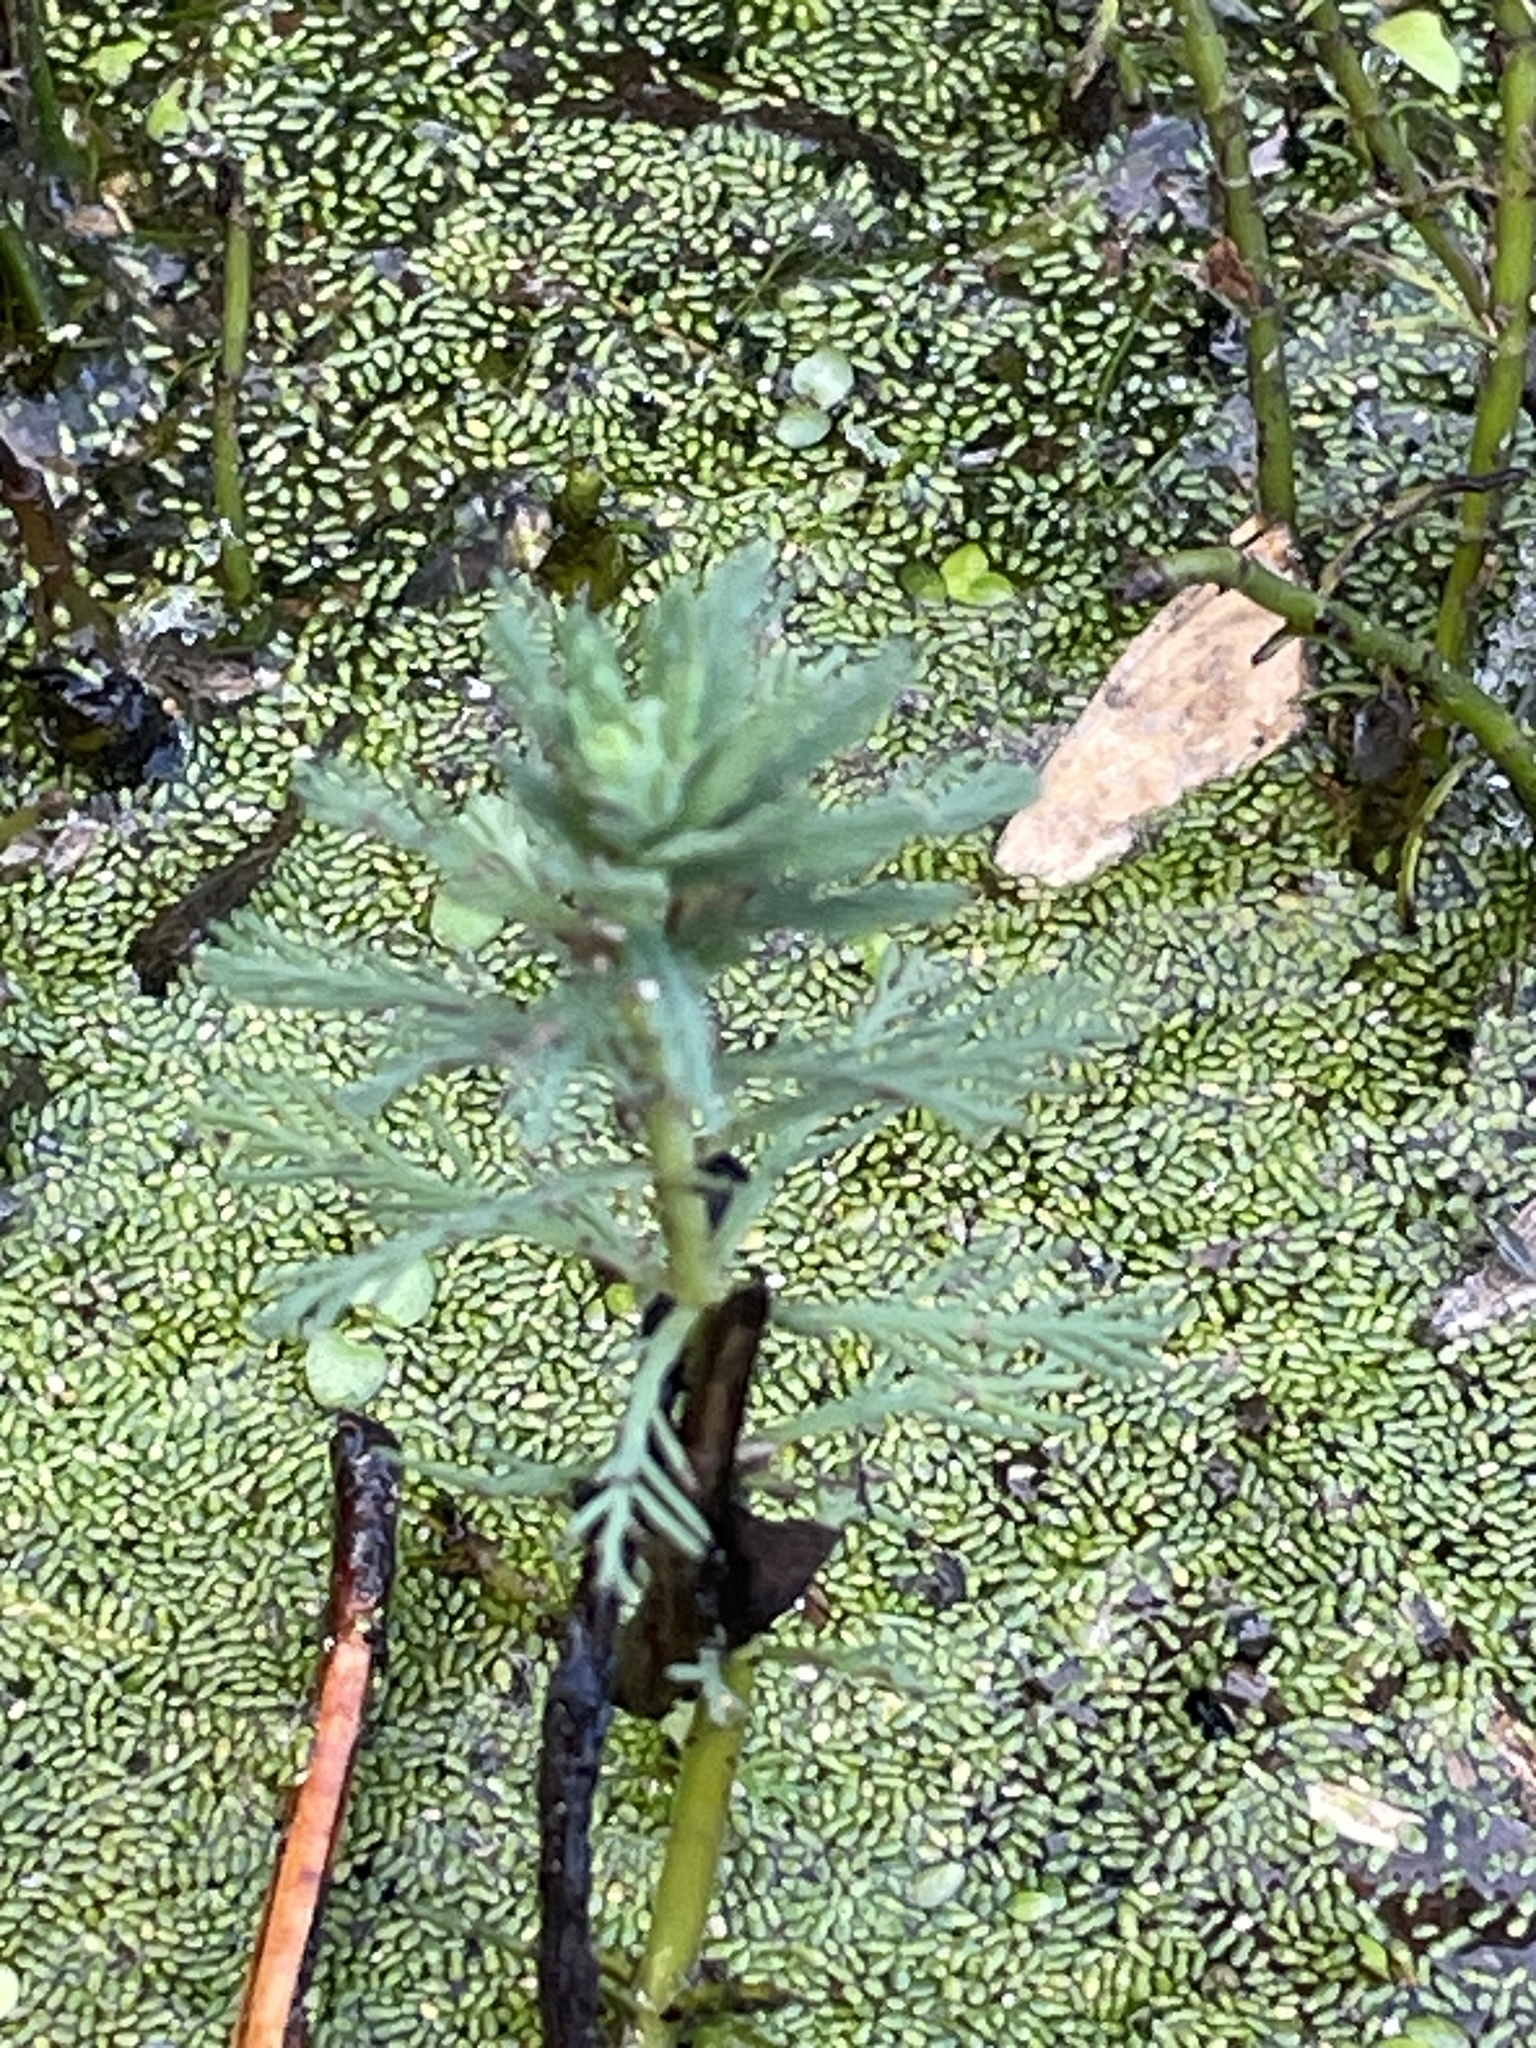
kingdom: Plantae
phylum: Tracheophyta
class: Magnoliopsida
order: Saxifragales
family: Haloragaceae
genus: Myriophyllum
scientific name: Myriophyllum aquaticum
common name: Parrot's feather
